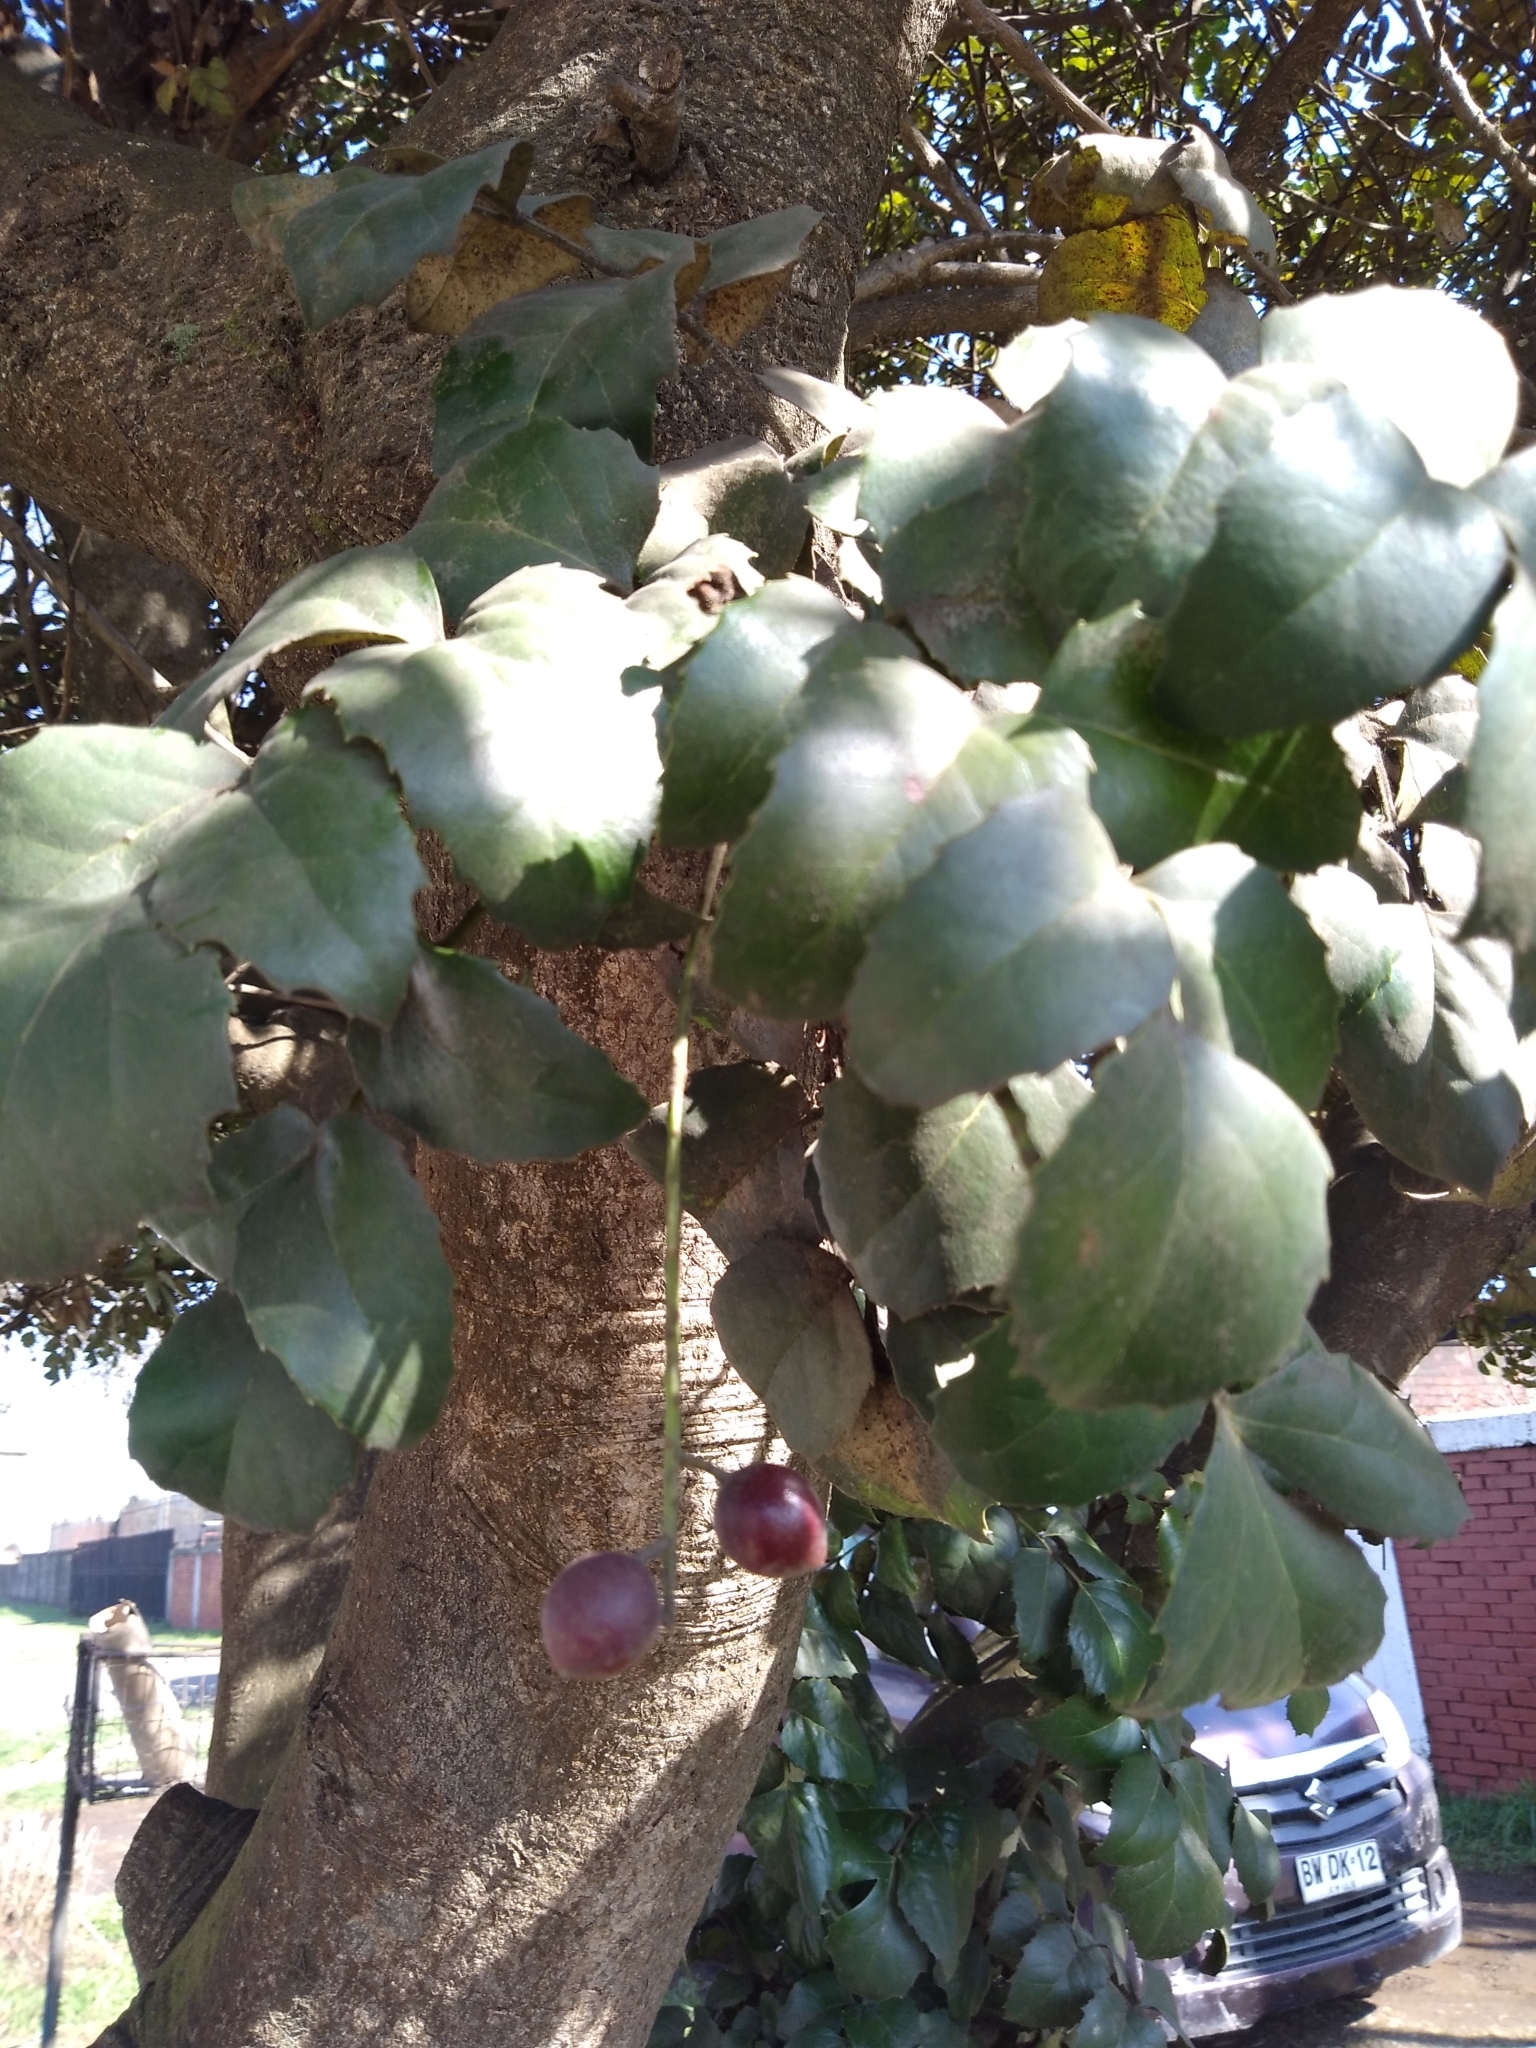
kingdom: Plantae
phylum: Tracheophyta
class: Magnoliopsida
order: Proteales
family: Proteaceae
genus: Gevuina
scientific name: Gevuina avellana
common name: Chilean hazel
